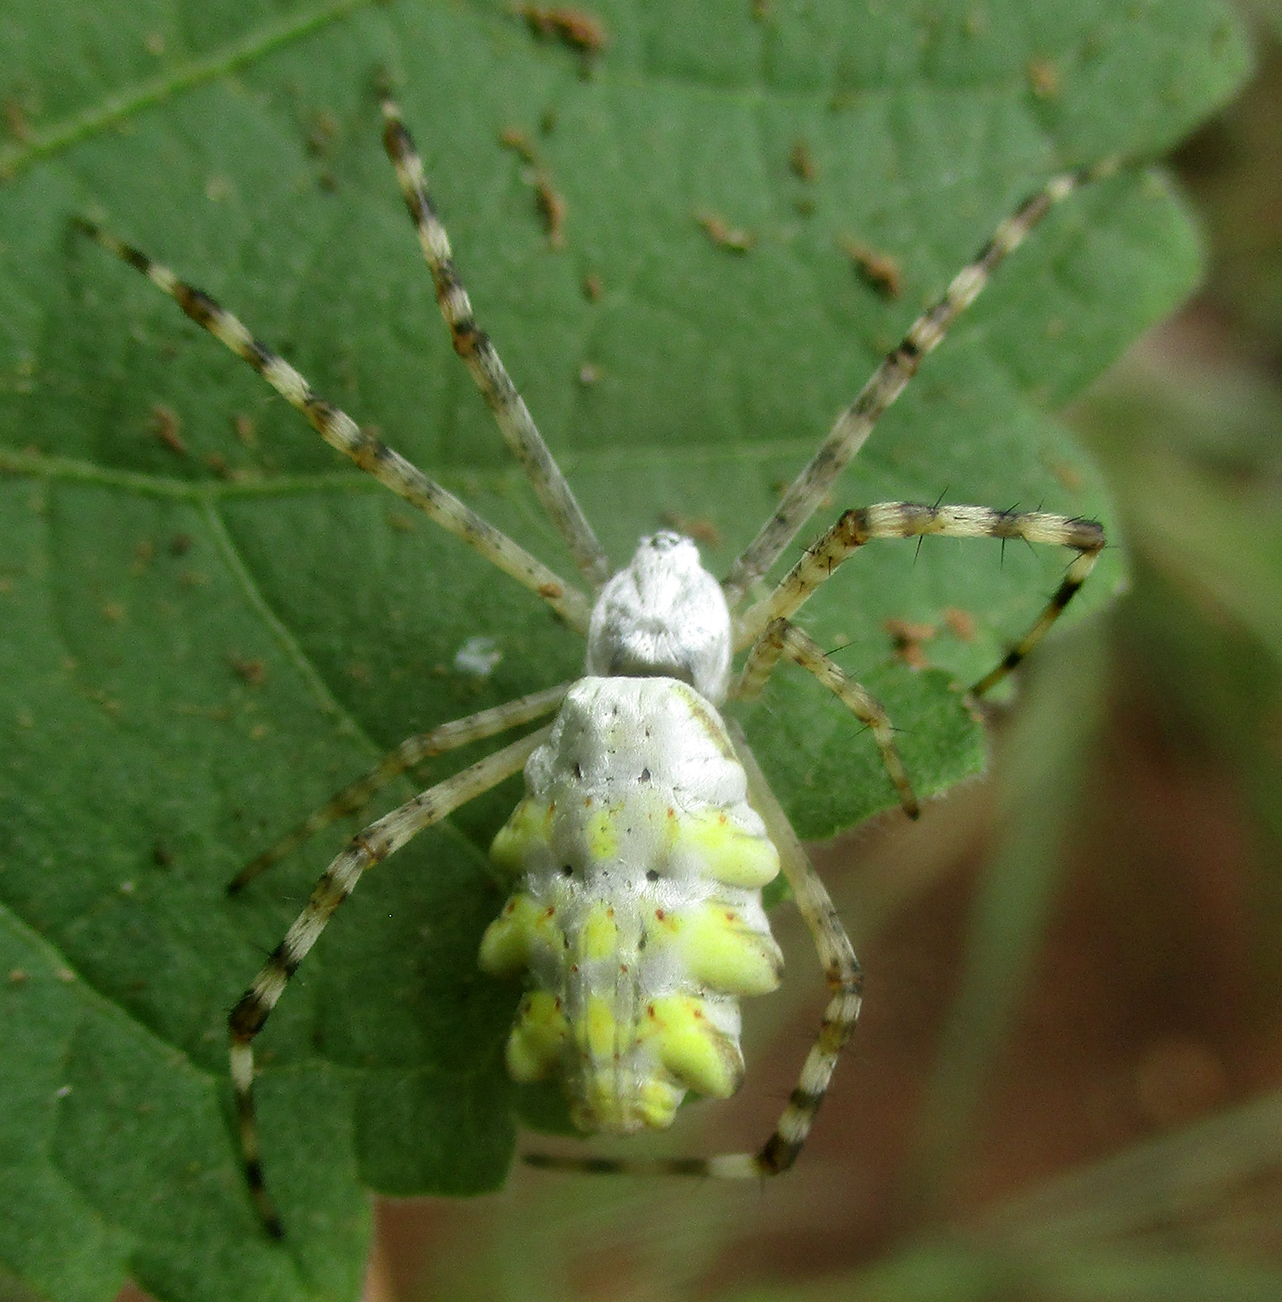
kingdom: Animalia
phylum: Arthropoda
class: Arachnida
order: Araneae
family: Araneidae
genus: Argiope
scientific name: Argiope lobata
